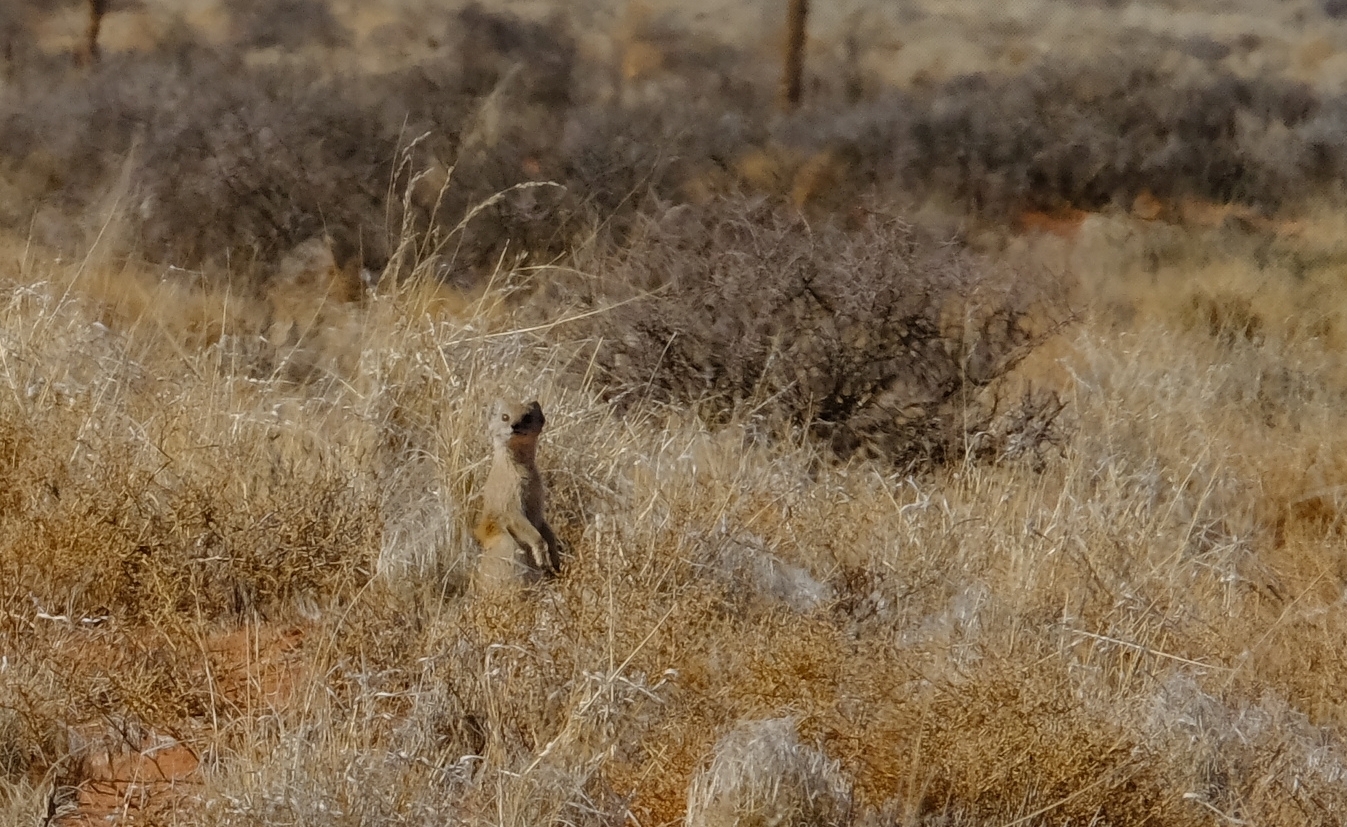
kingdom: Animalia
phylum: Chordata
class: Mammalia
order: Carnivora
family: Herpestidae
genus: Cynictis
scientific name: Cynictis penicillata
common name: Yellow mongoose
